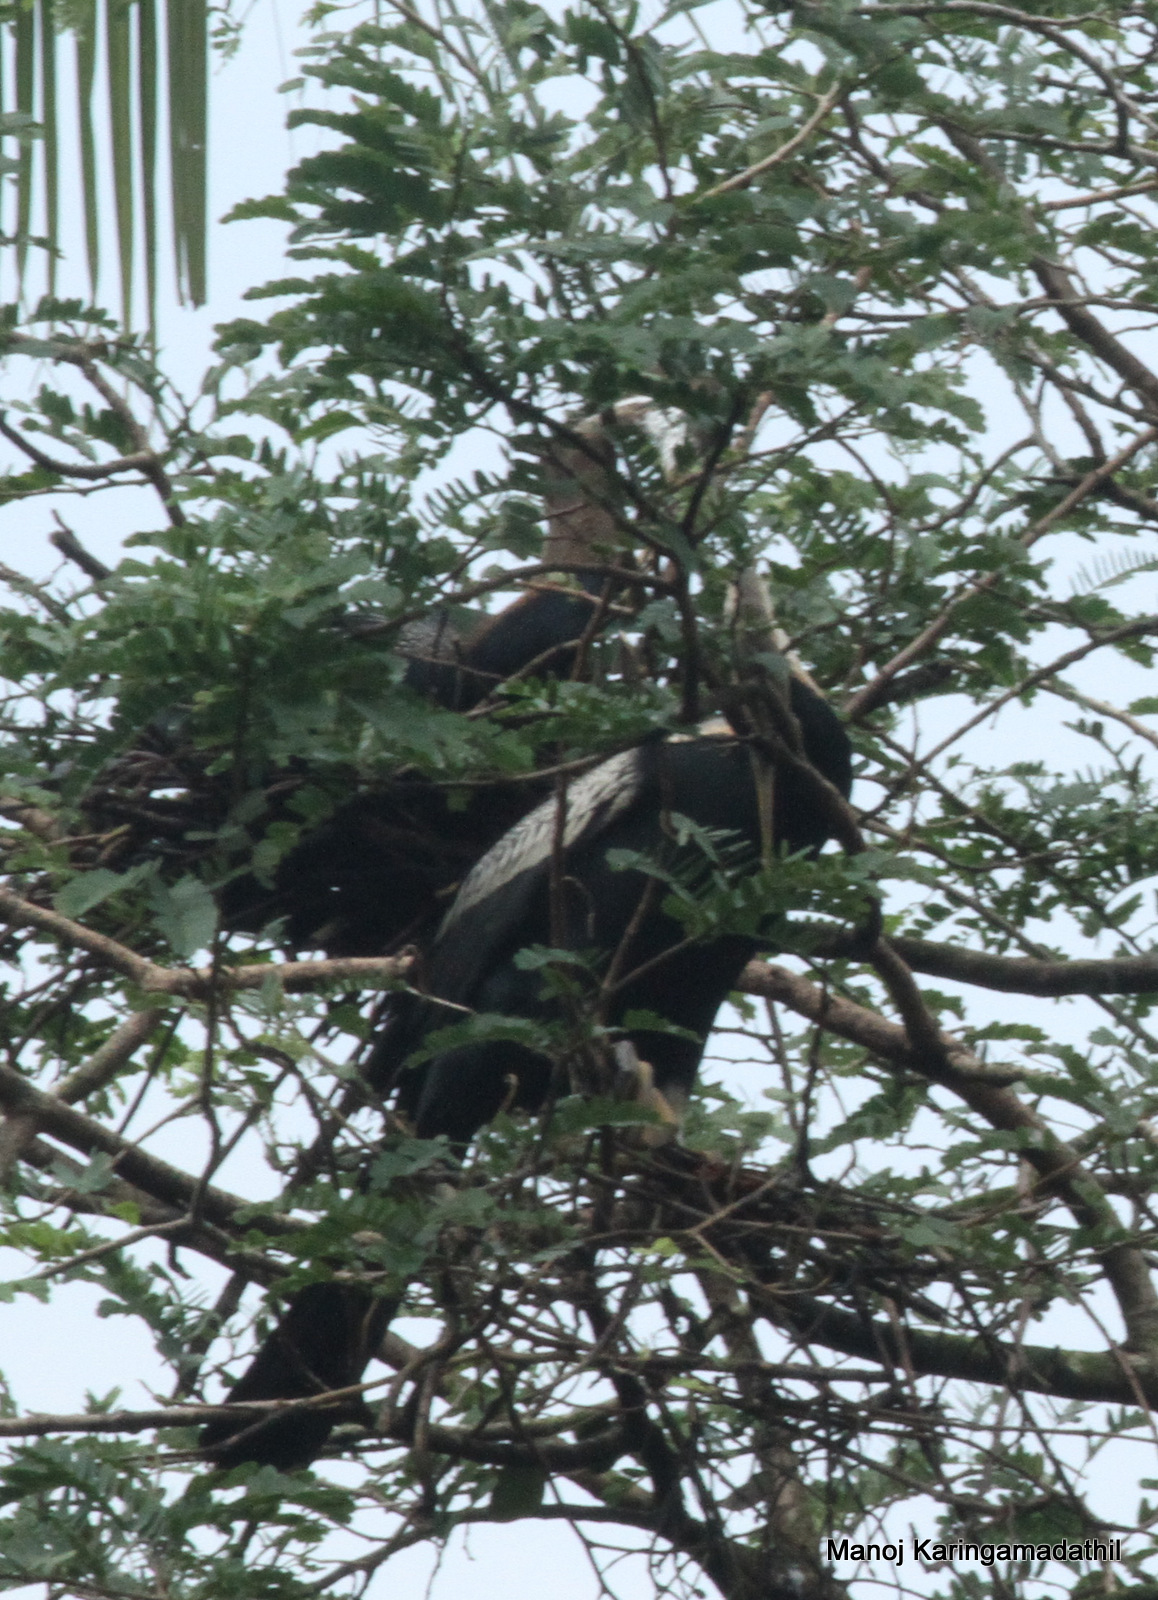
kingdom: Animalia
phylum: Chordata
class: Aves
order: Suliformes
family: Anhingidae
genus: Anhinga
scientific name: Anhinga melanogaster
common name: Oriental darter
